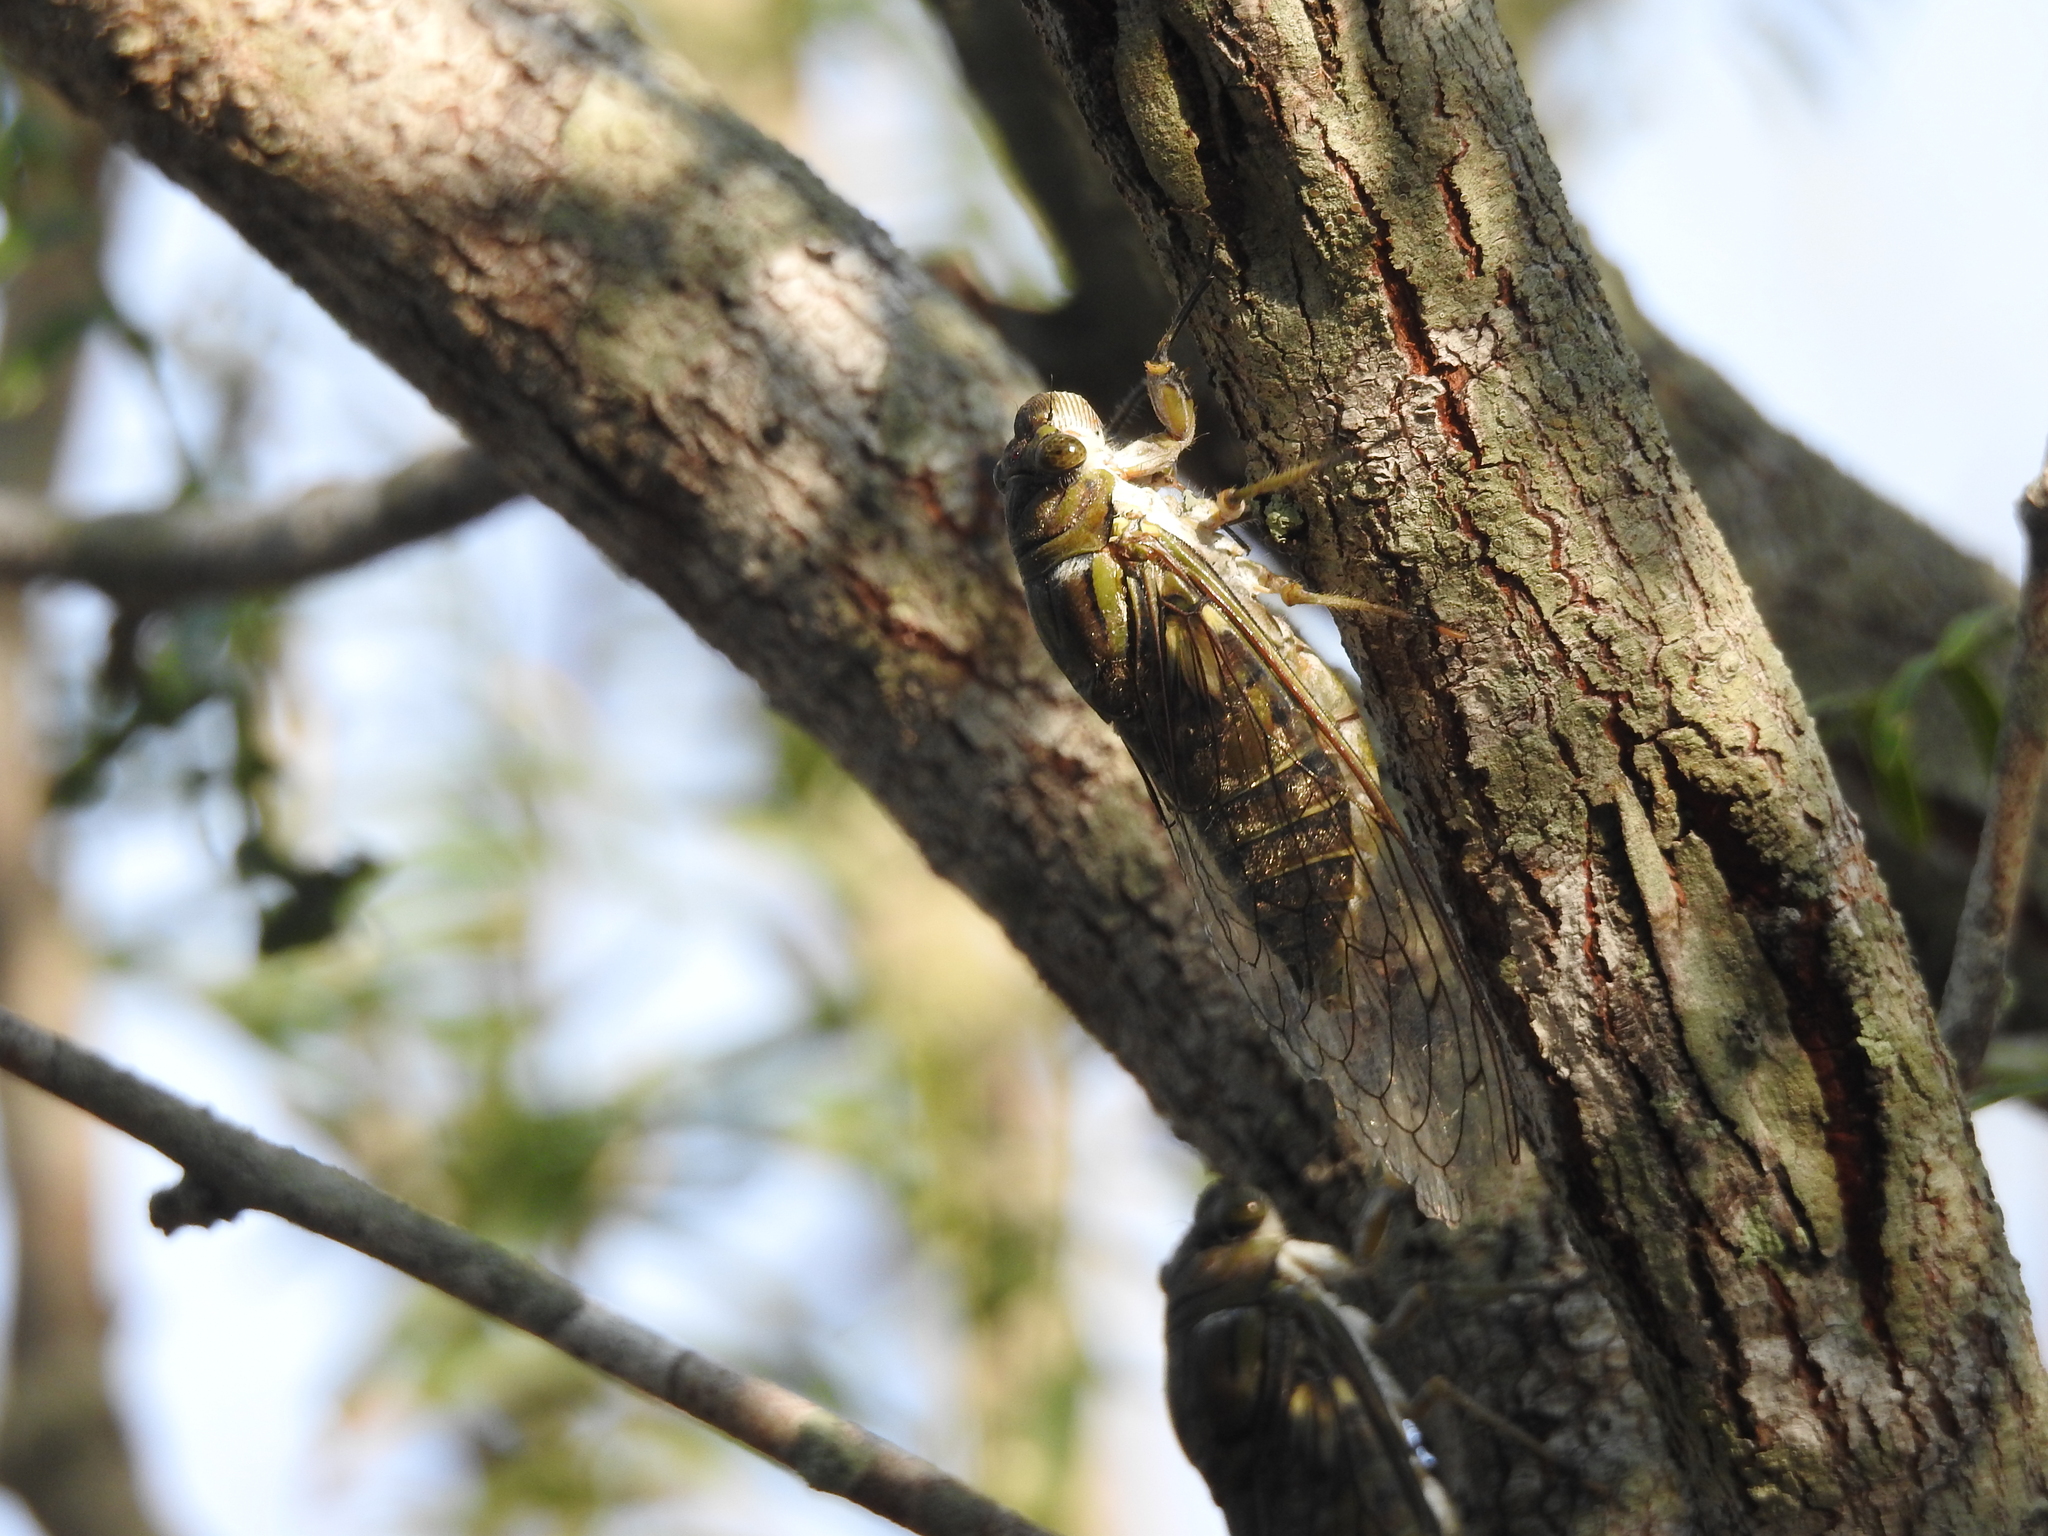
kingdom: Animalia
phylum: Arthropoda
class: Insecta
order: Hemiptera
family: Cicadidae
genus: Quesada
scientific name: Quesada gigas
